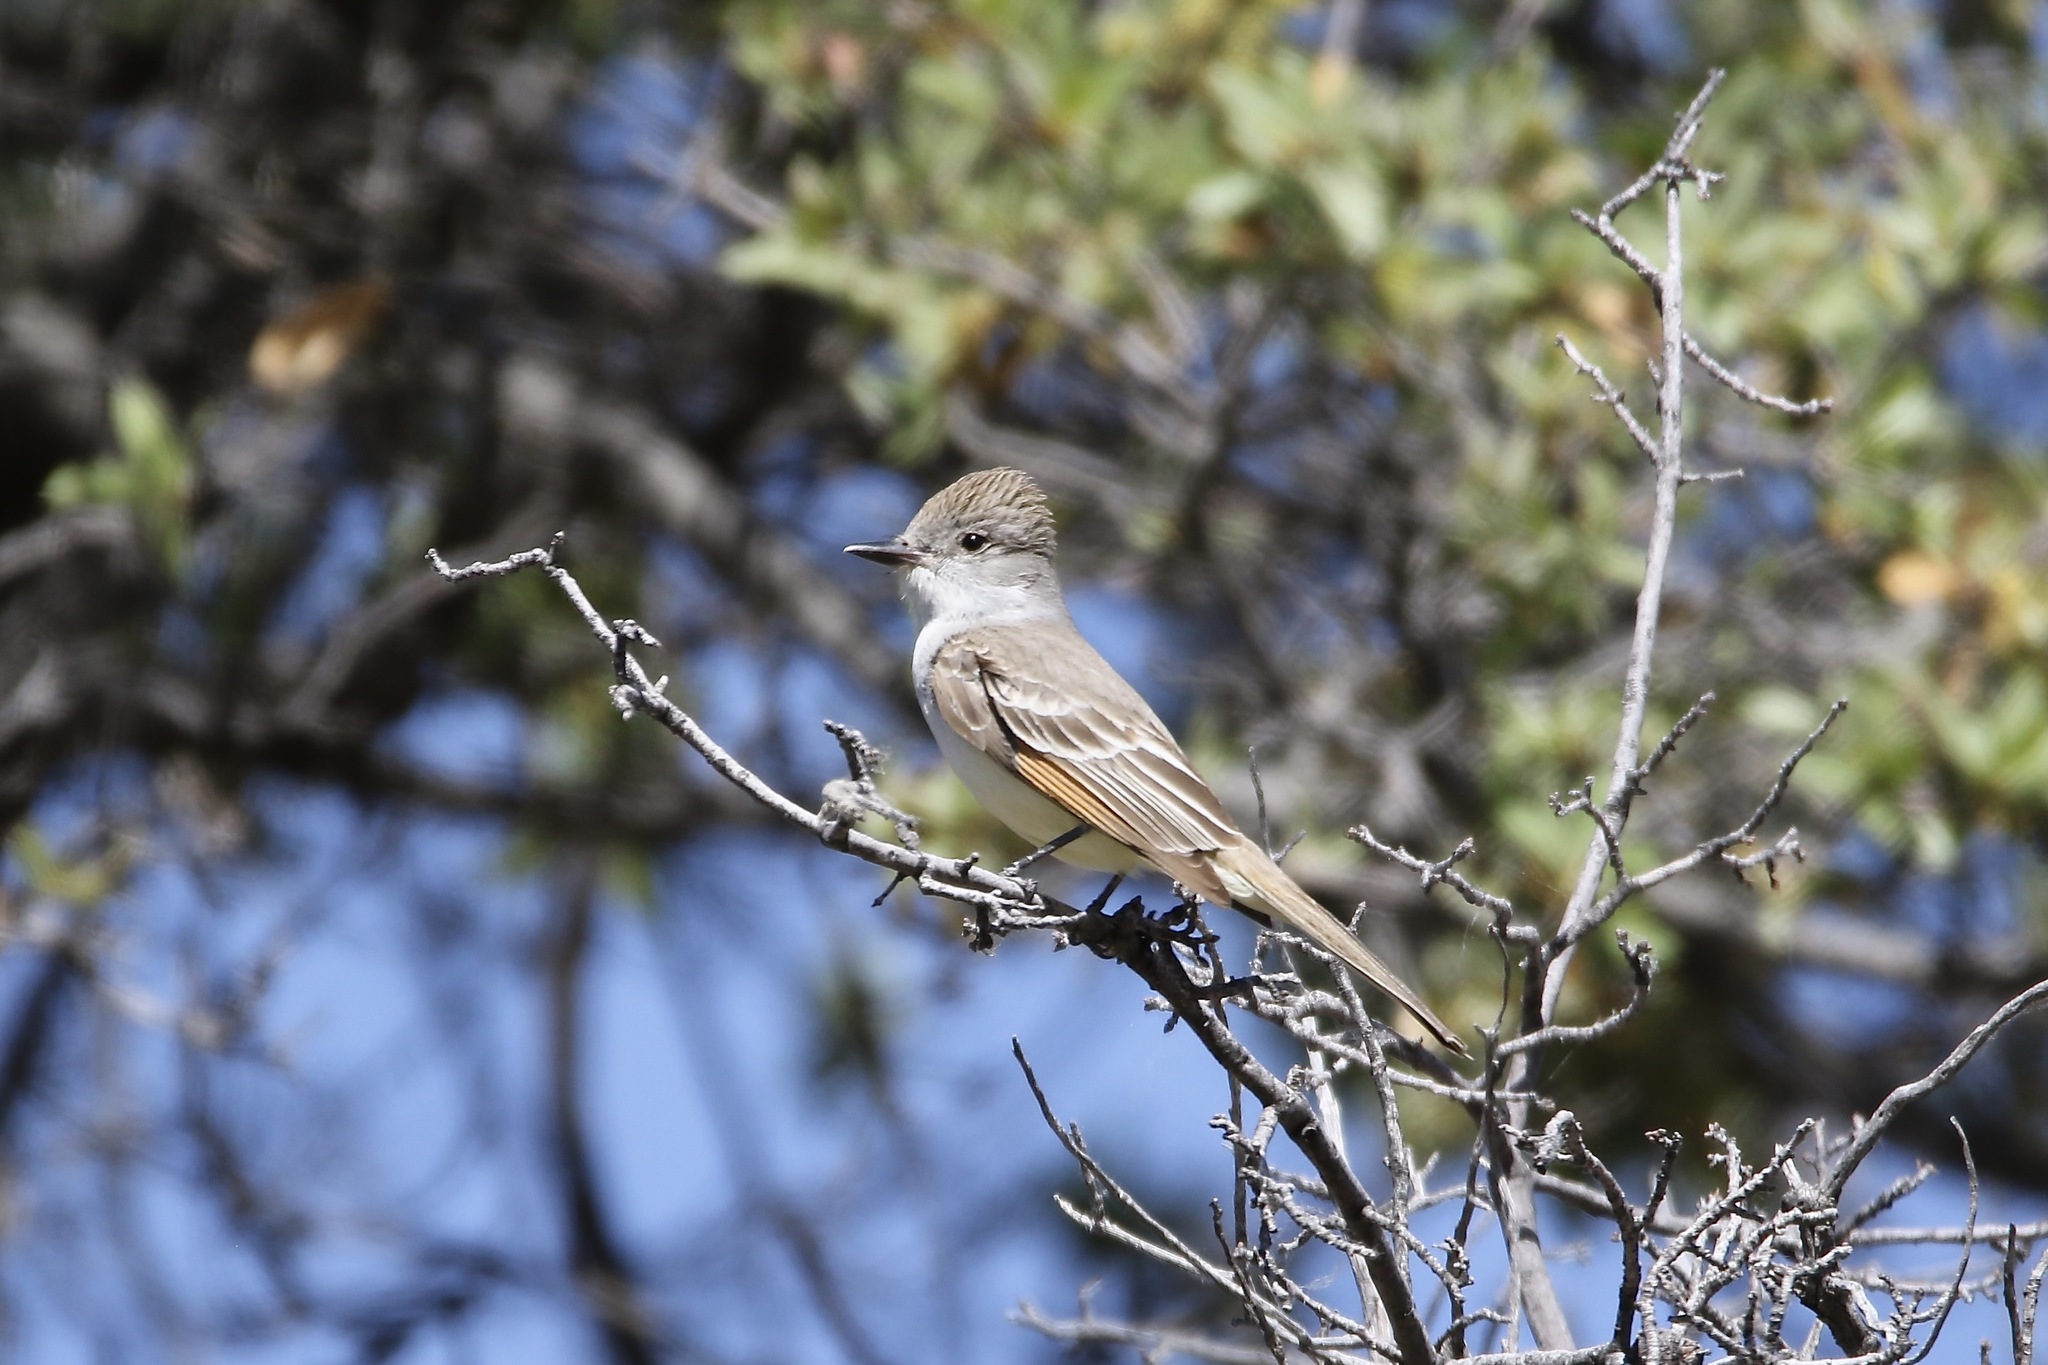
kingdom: Animalia
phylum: Chordata
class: Aves
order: Passeriformes
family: Tyrannidae
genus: Myiarchus
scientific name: Myiarchus cinerascens
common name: Ash-throated flycatcher
